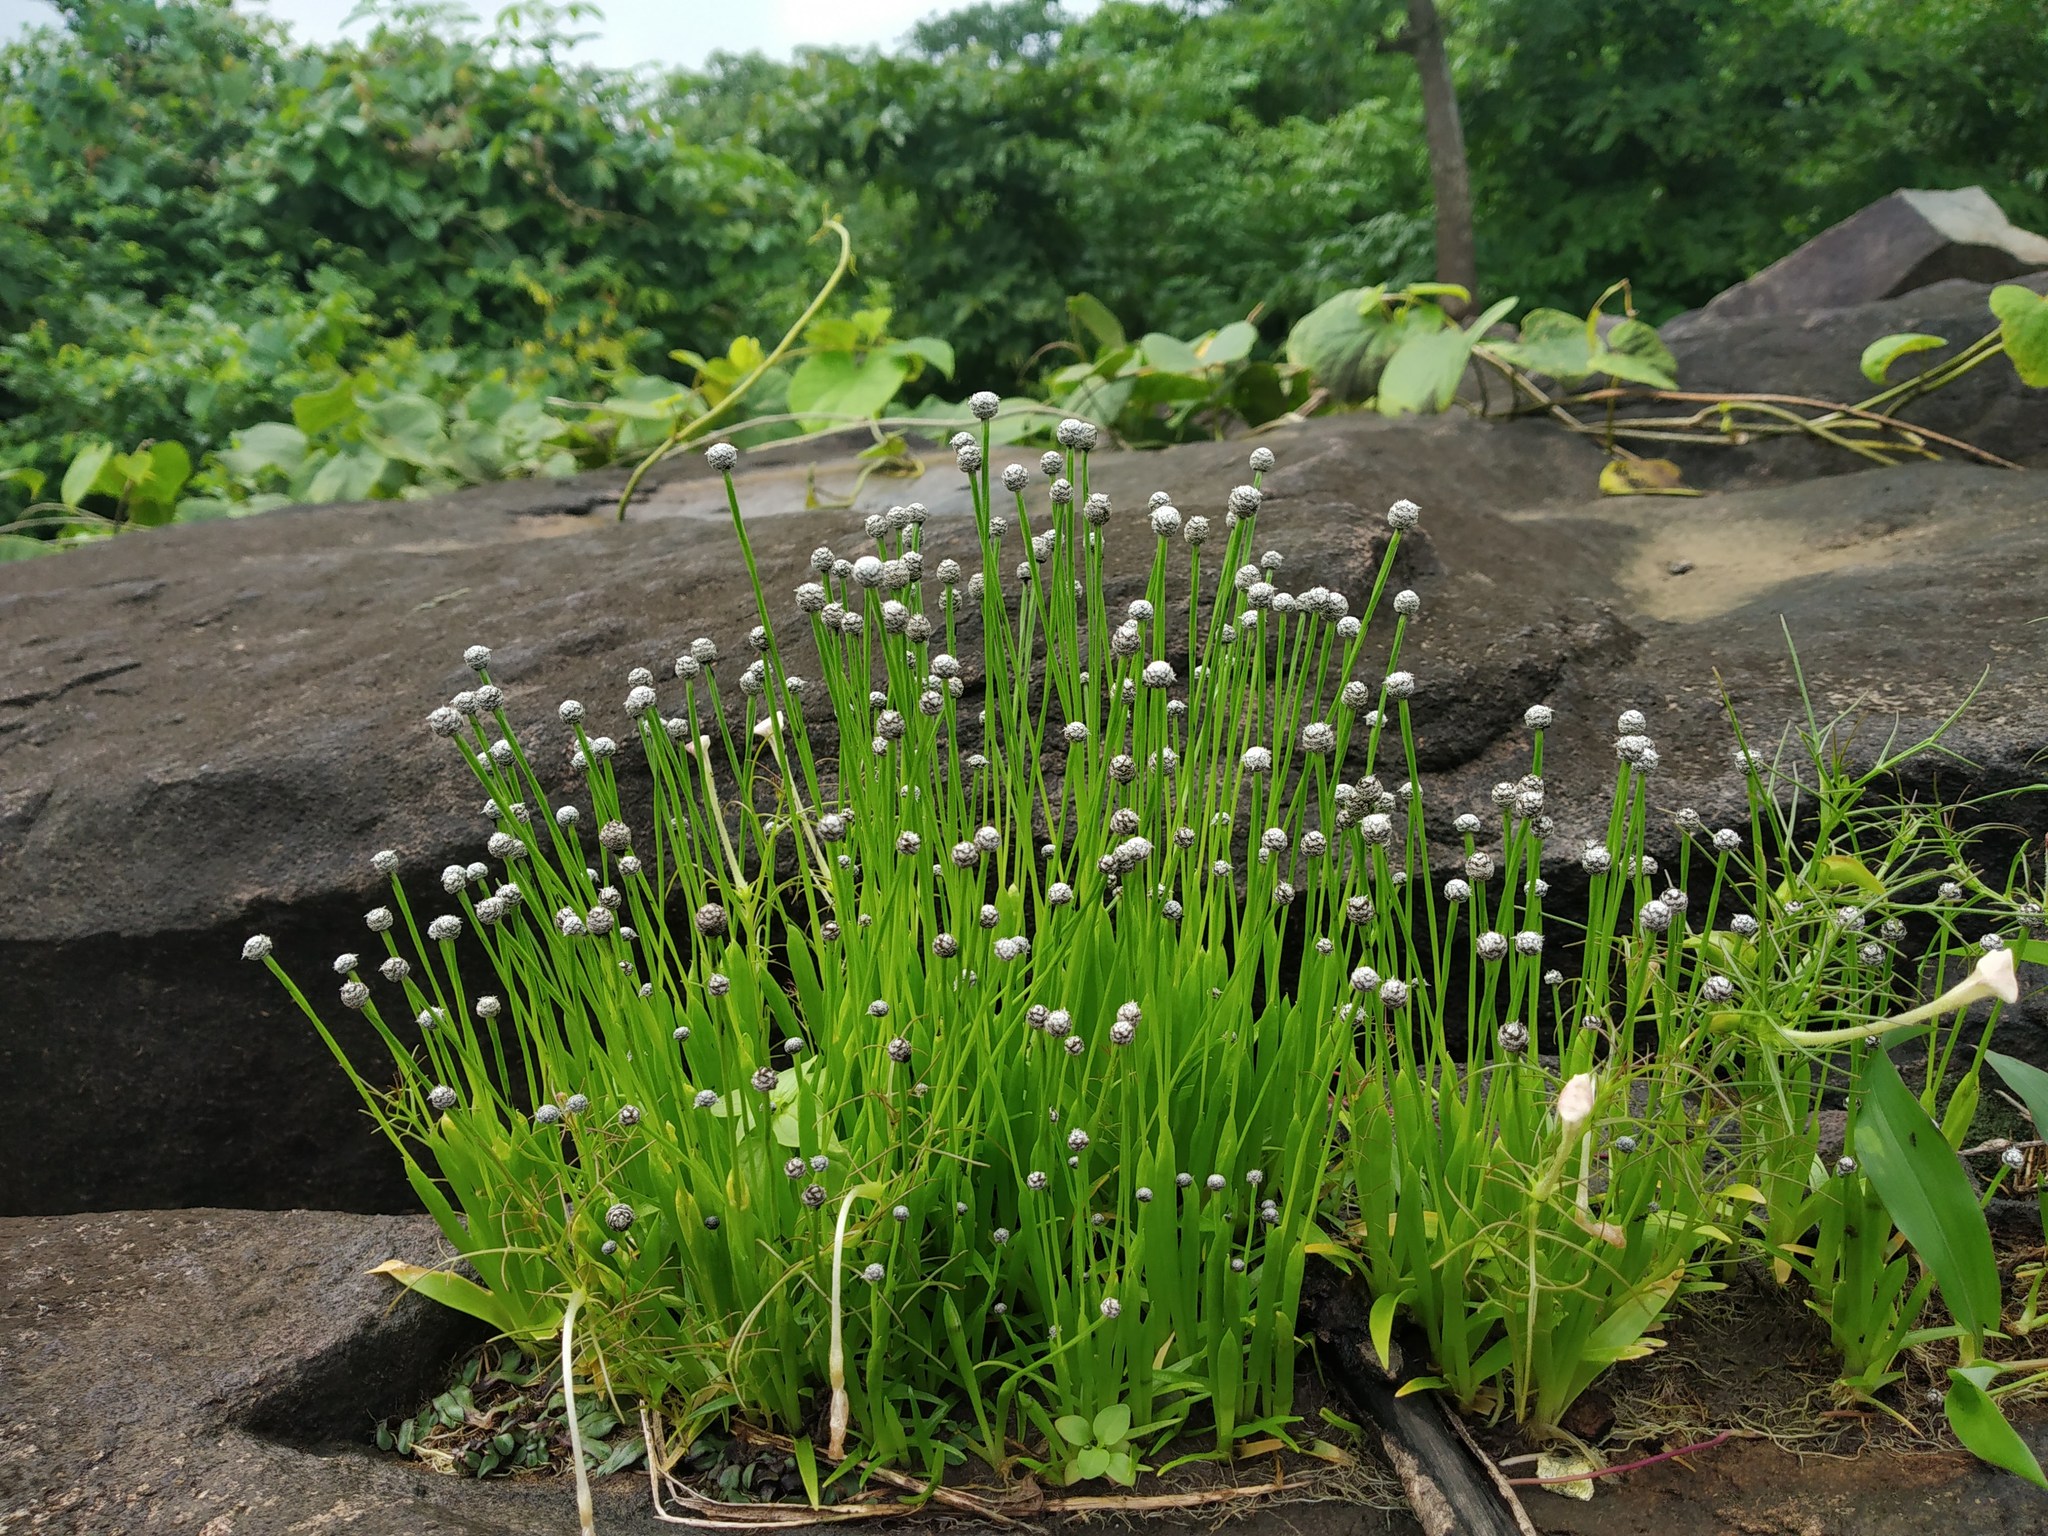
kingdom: Plantae
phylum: Tracheophyta
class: Liliopsida
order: Poales
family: Eriocaulaceae
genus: Eriocaulon
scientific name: Eriocaulon tuberiferum
